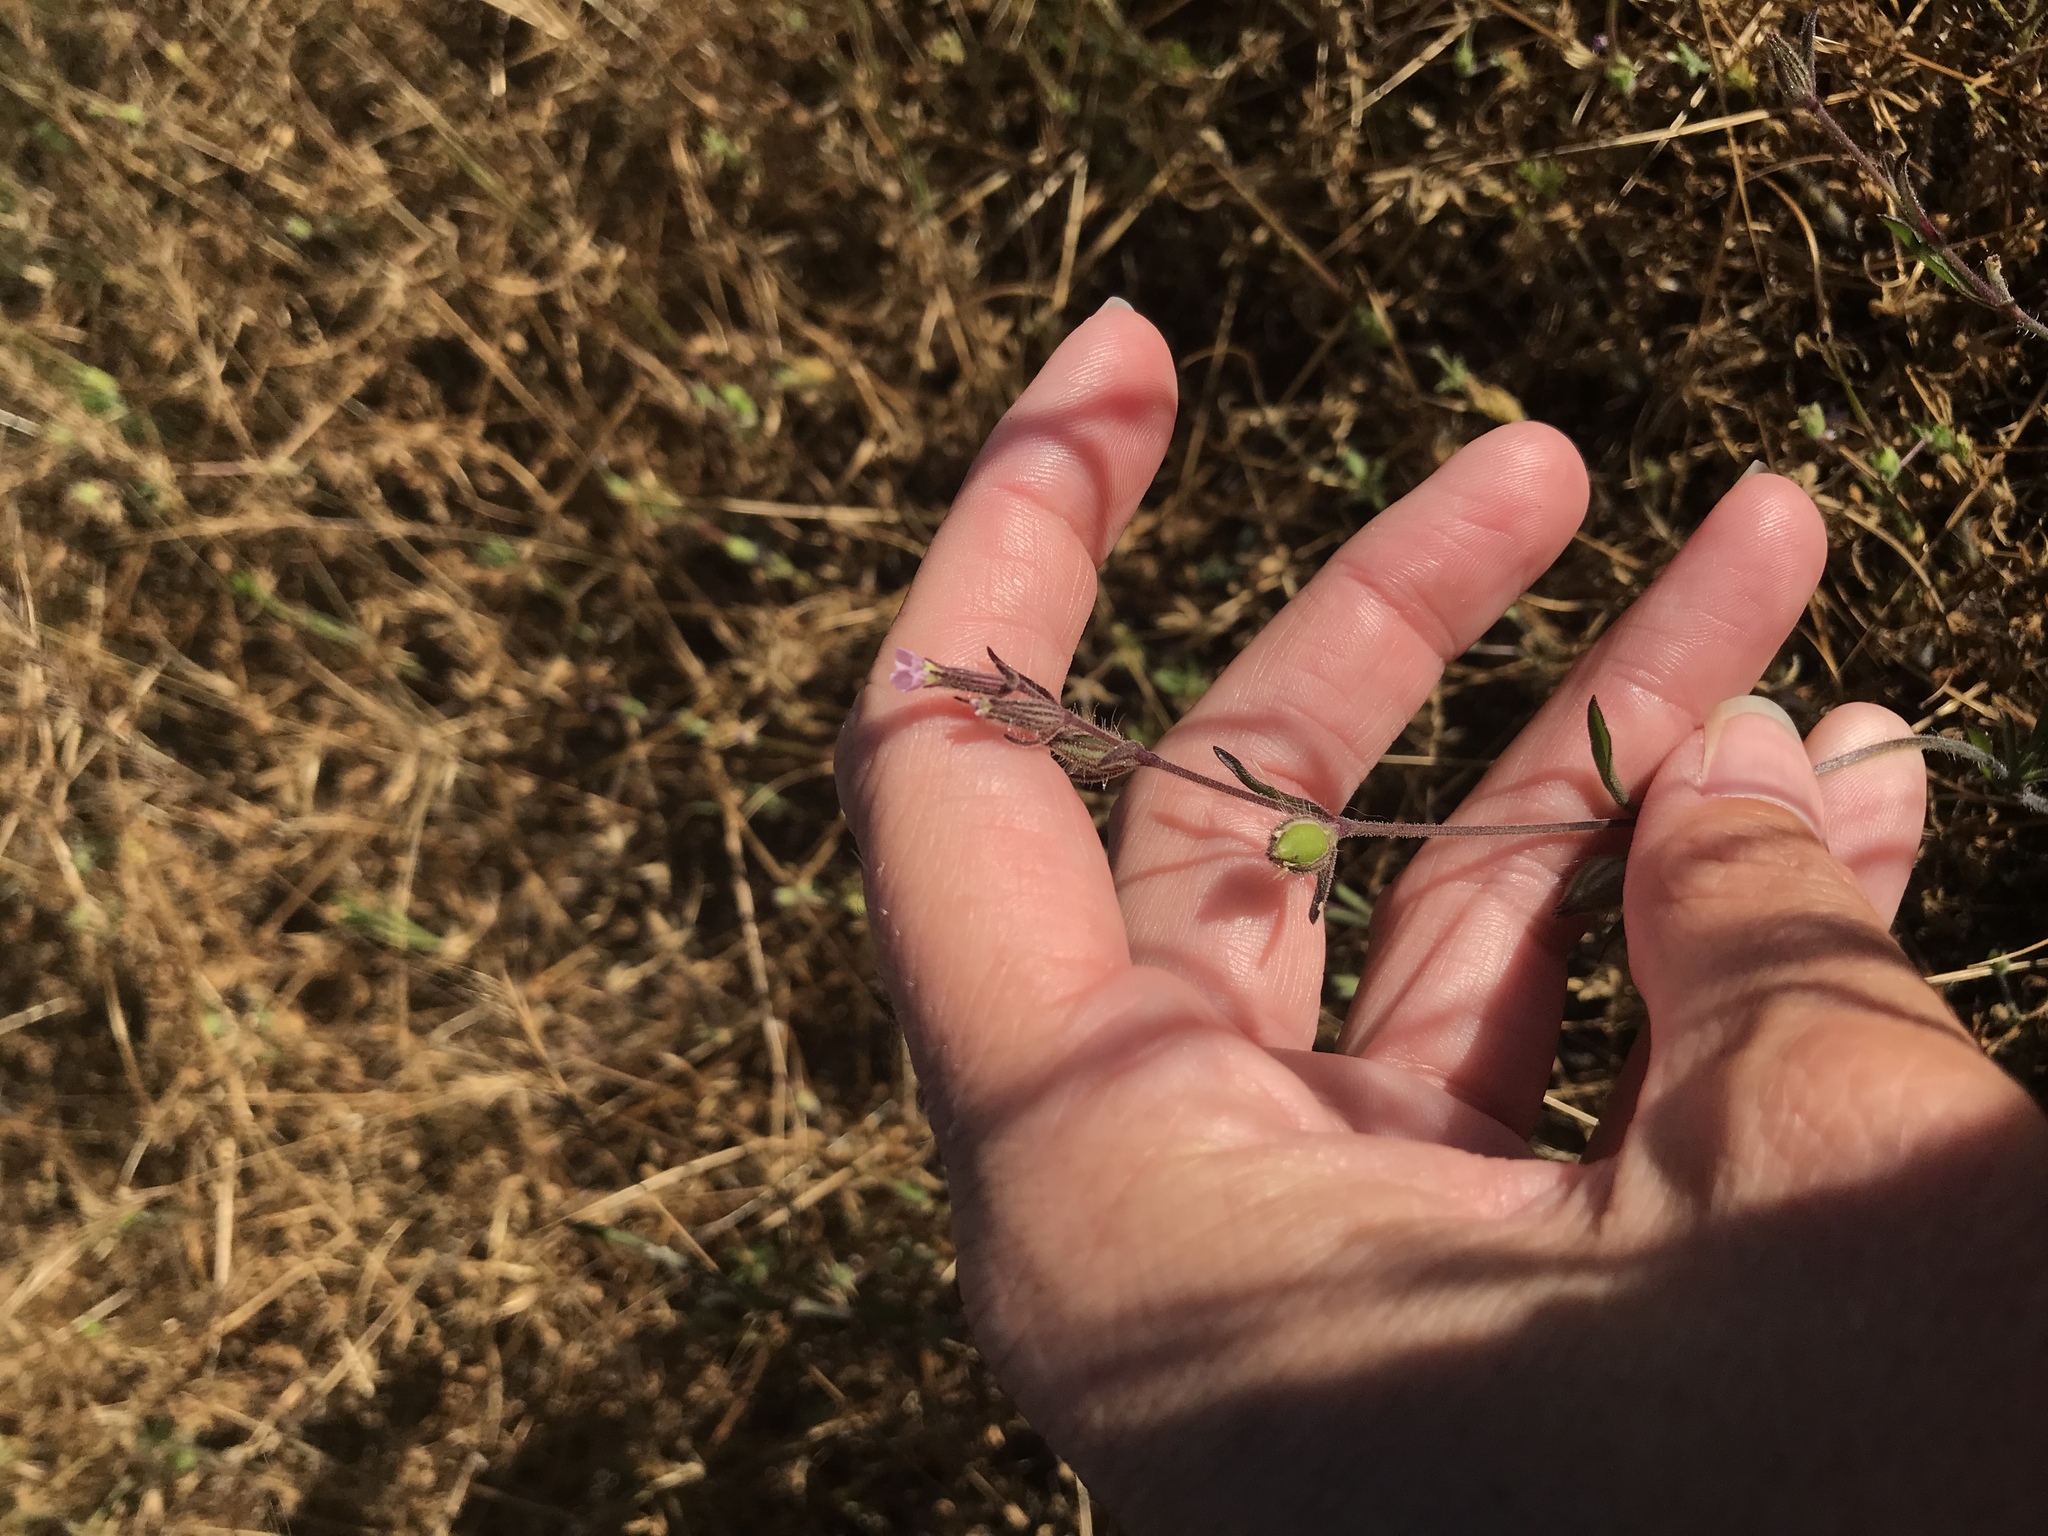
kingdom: Plantae
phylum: Tracheophyta
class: Magnoliopsida
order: Caryophyllales
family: Caryophyllaceae
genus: Silene
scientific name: Silene gallica
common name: Small-flowered catchfly
